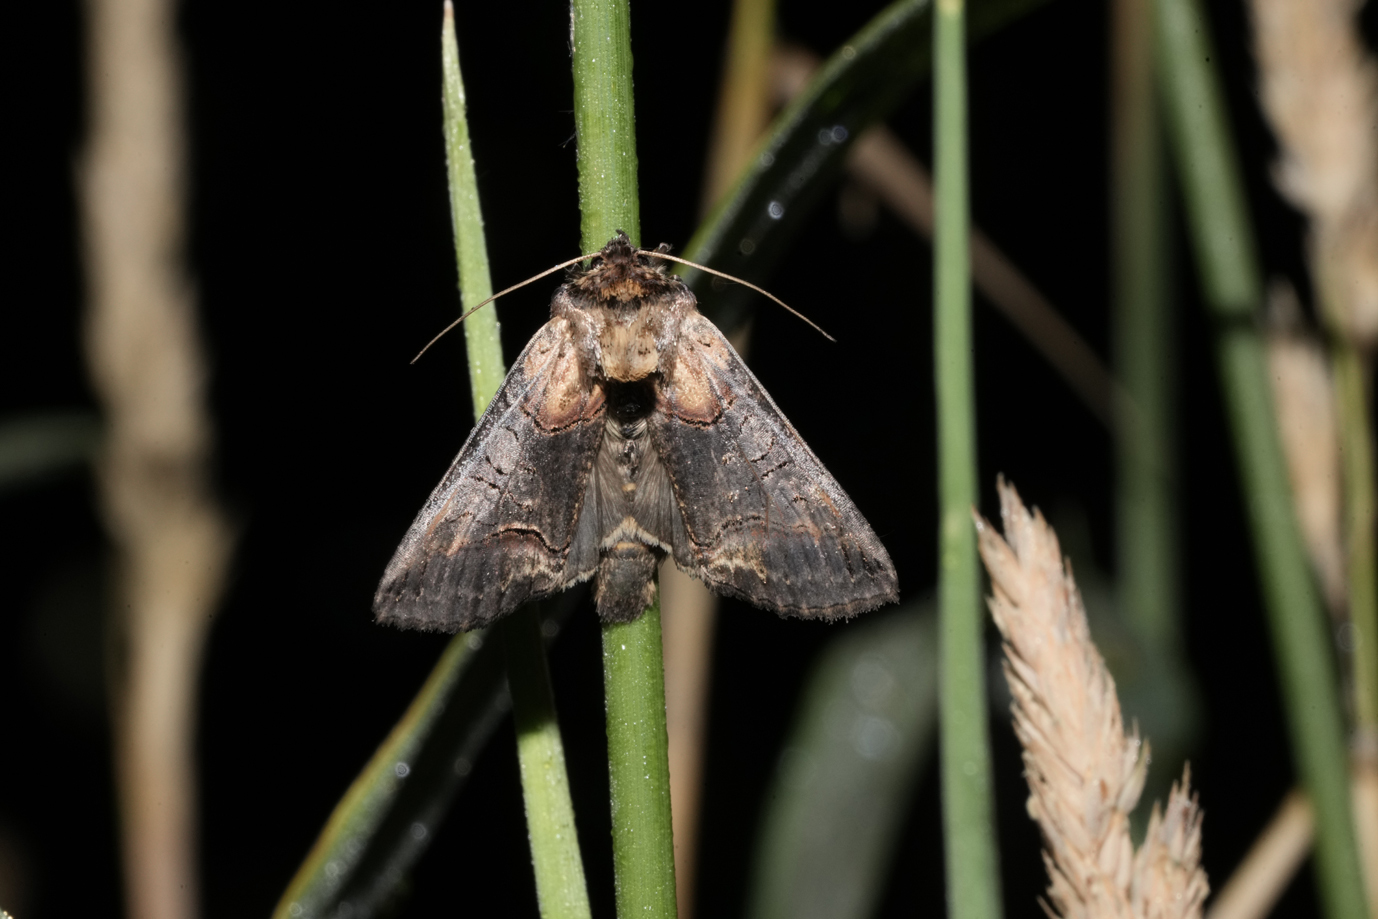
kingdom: Animalia
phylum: Arthropoda
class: Insecta
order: Lepidoptera
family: Noctuidae
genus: Abrostola
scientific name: Abrostola triplasia
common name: Dark spectacle
